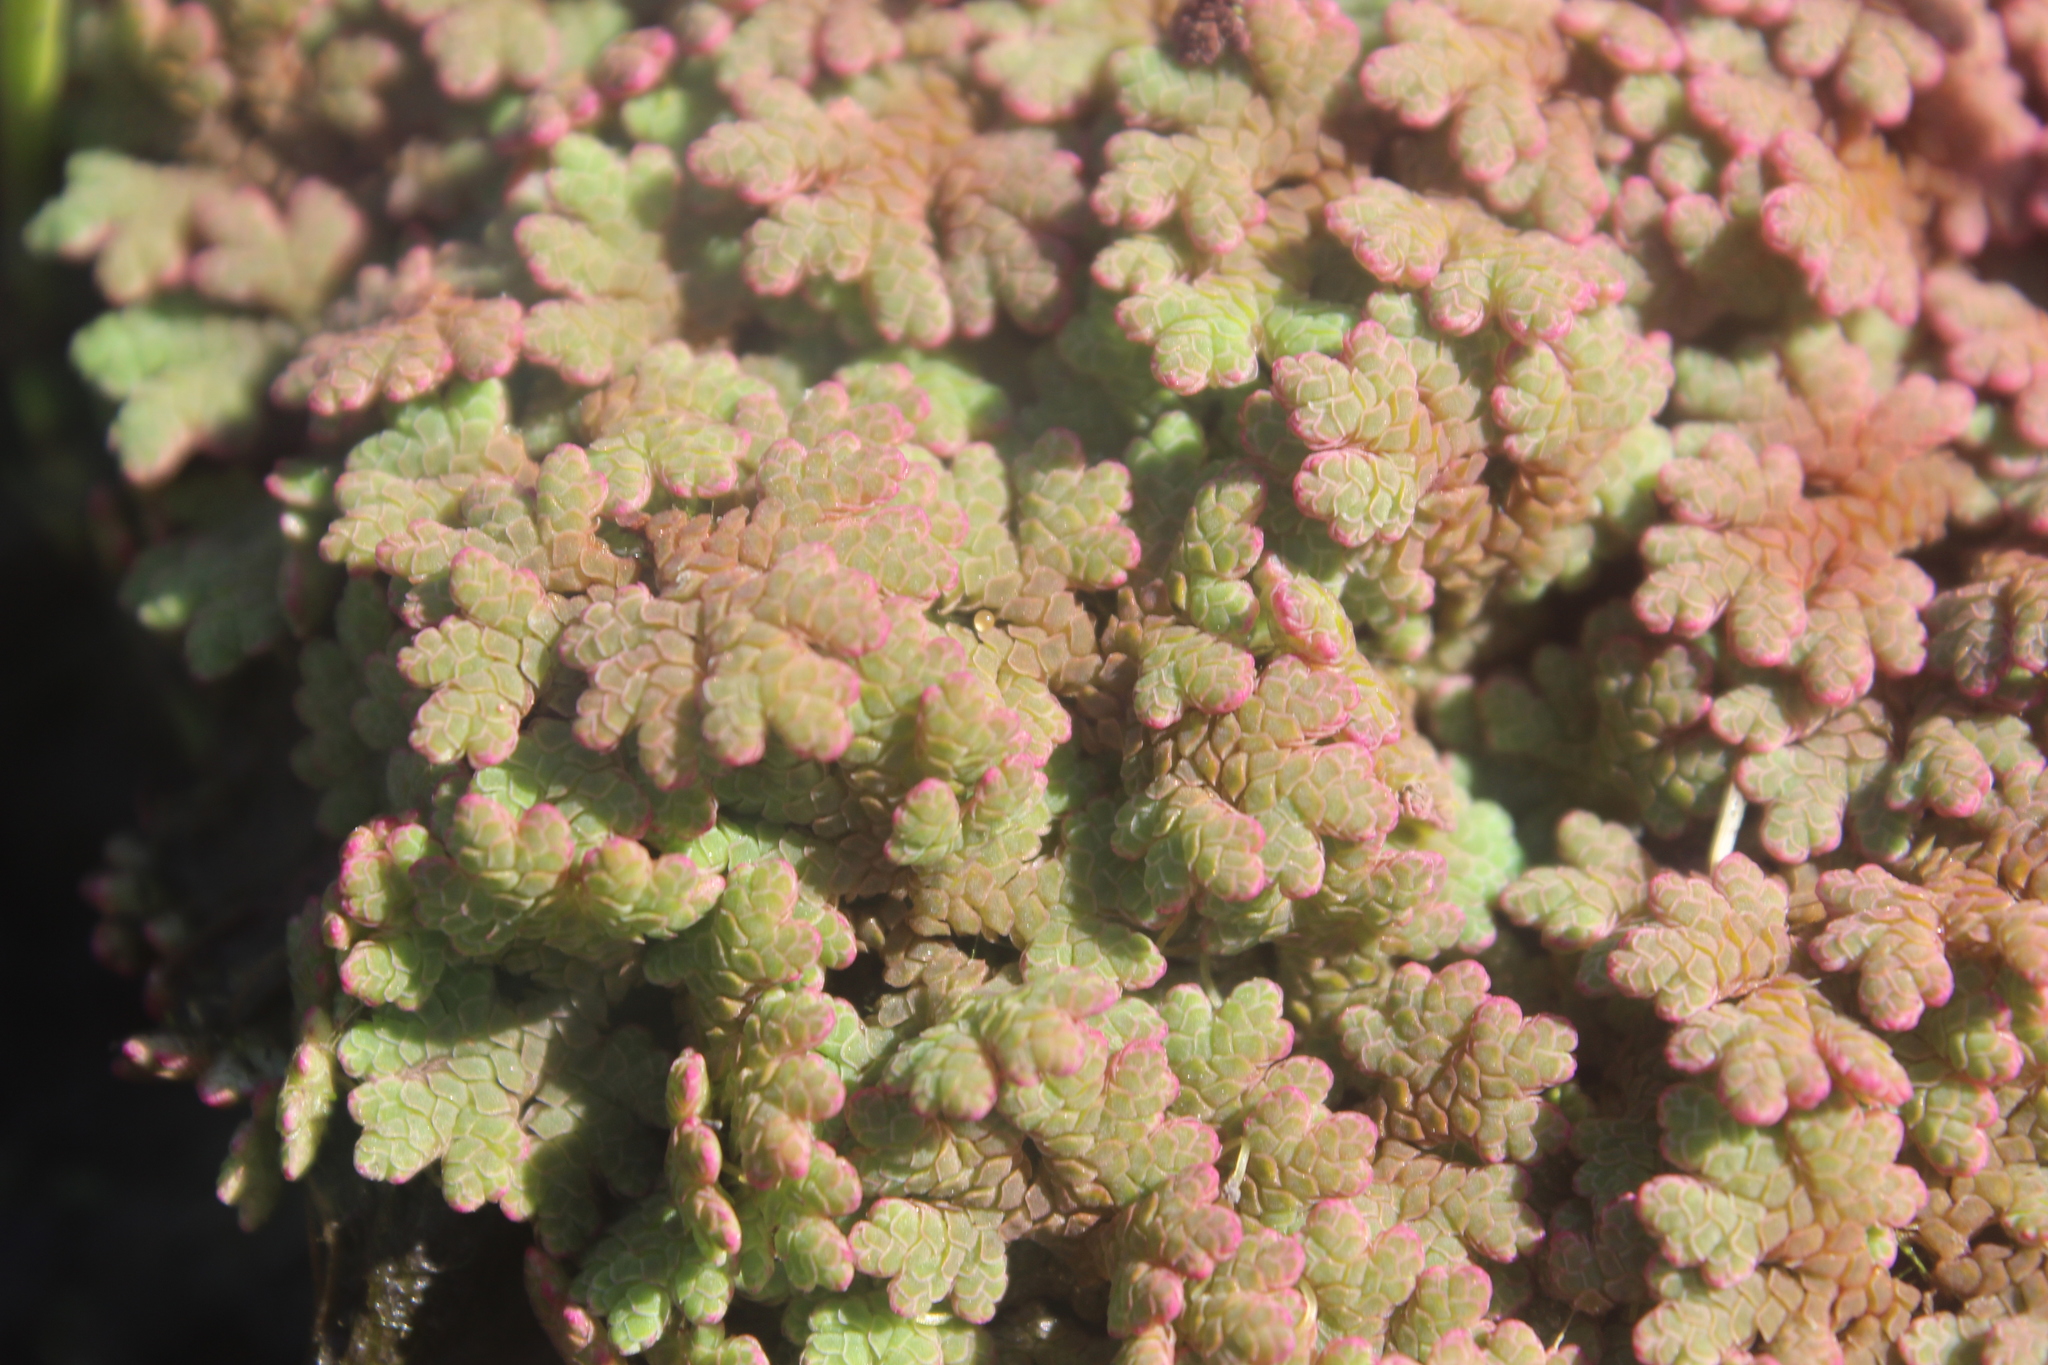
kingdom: Plantae
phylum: Tracheophyta
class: Polypodiopsida
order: Salviniales
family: Salviniaceae
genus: Azolla
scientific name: Azolla rubra
